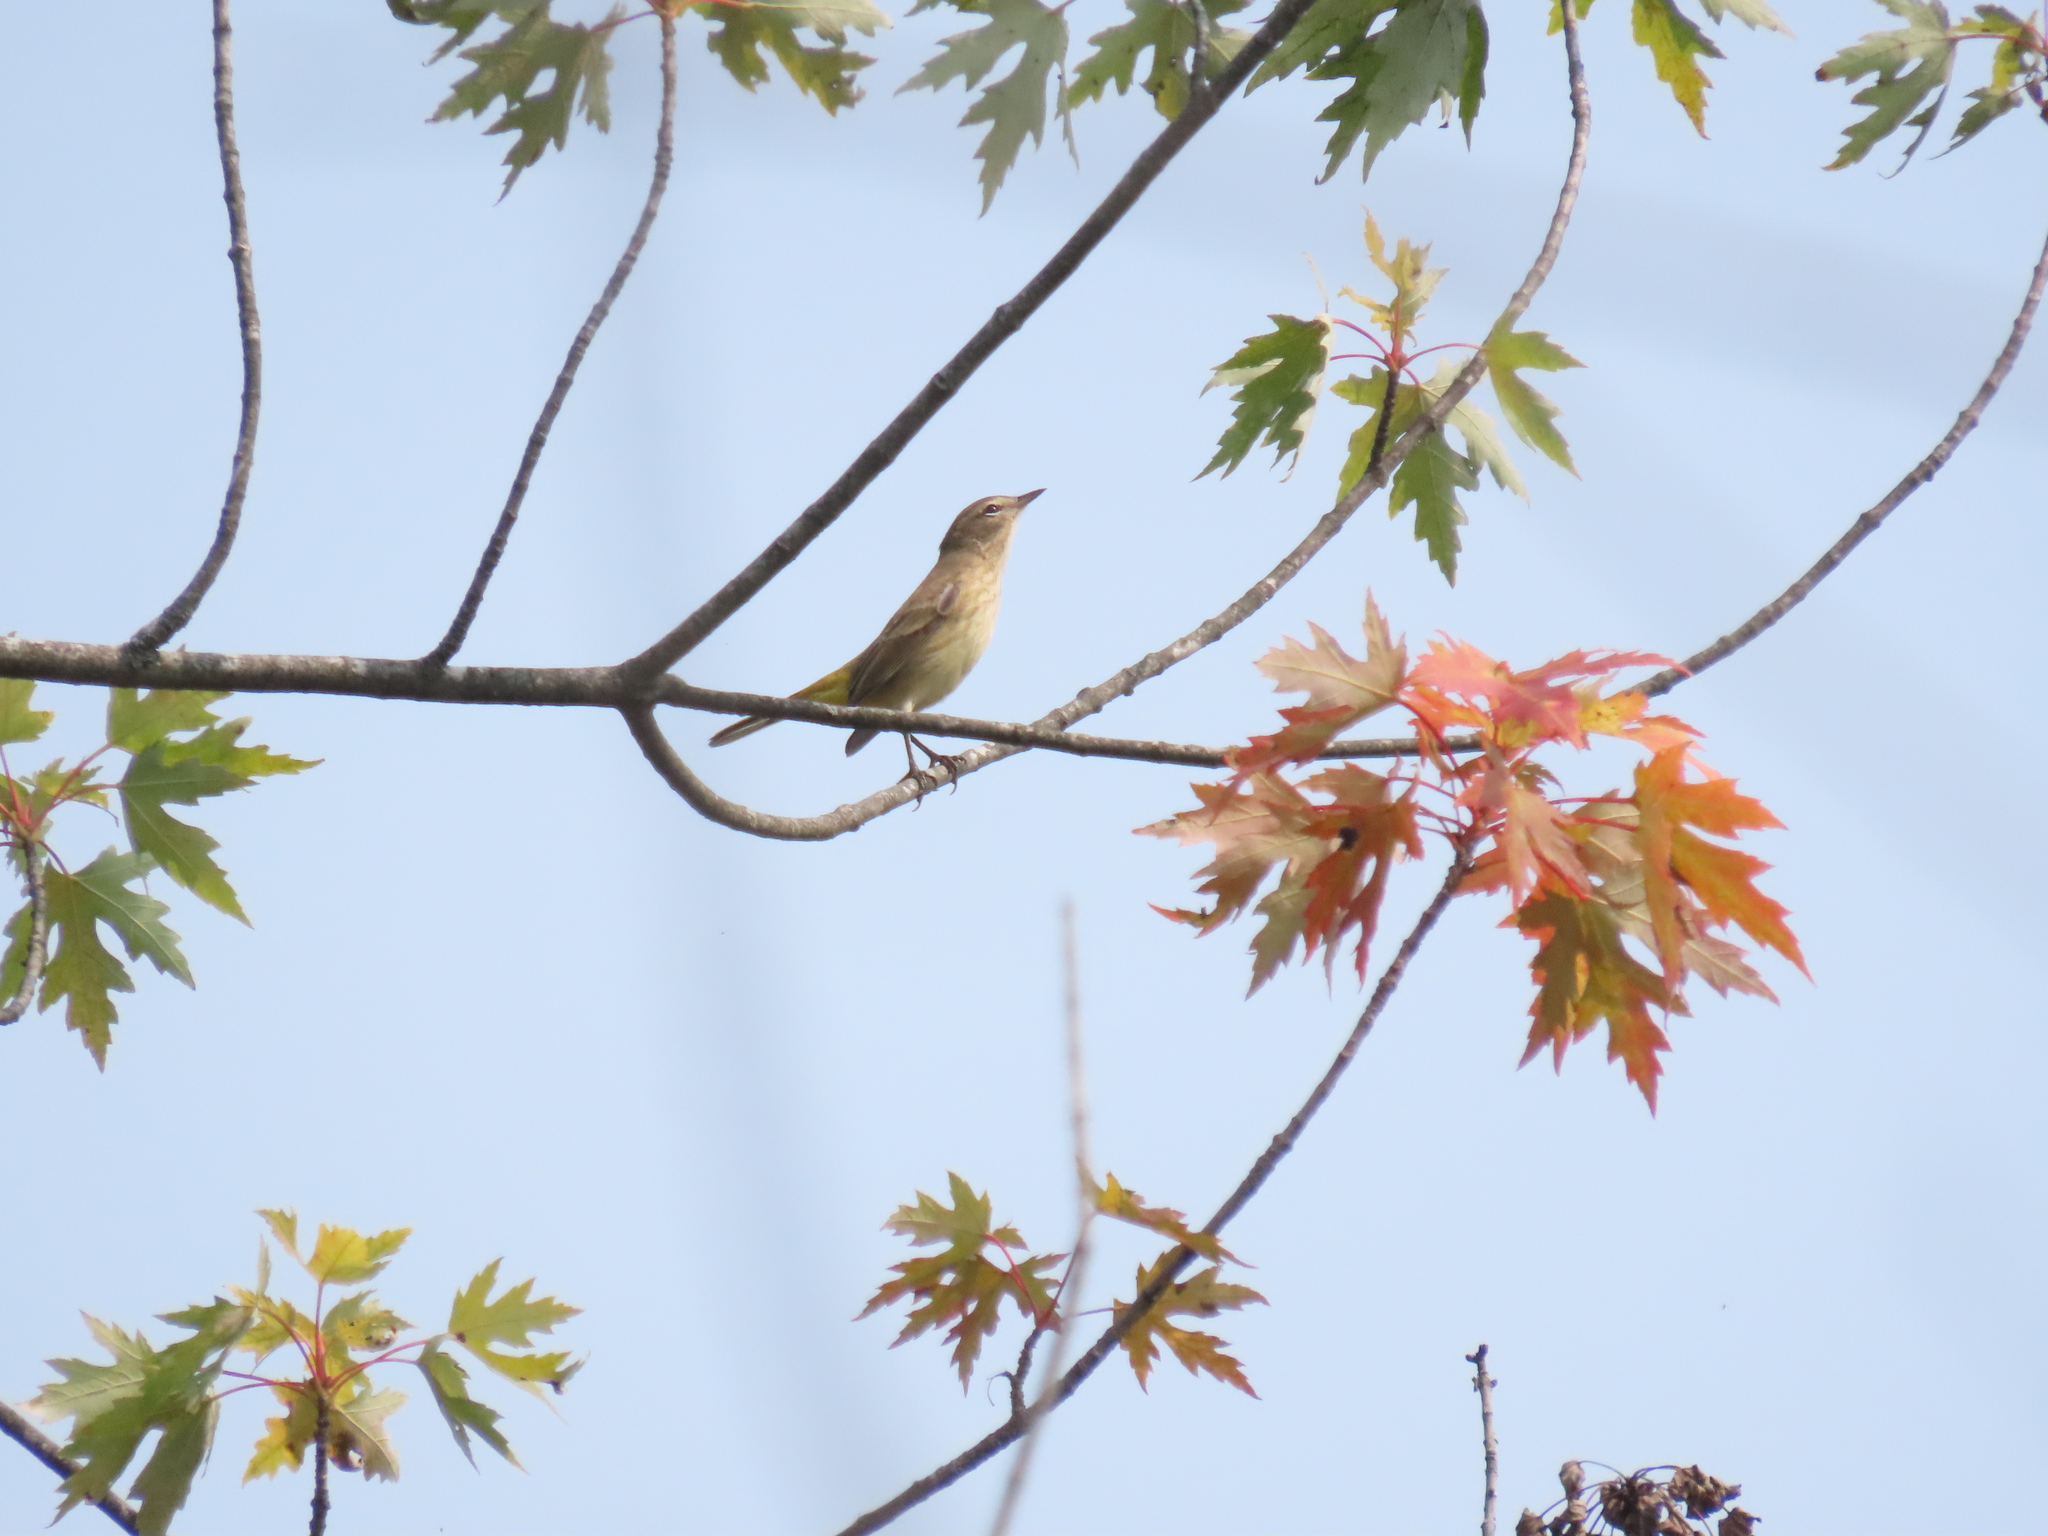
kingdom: Animalia
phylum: Chordata
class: Aves
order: Passeriformes
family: Parulidae
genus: Setophaga
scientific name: Setophaga palmarum
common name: Palm warbler
